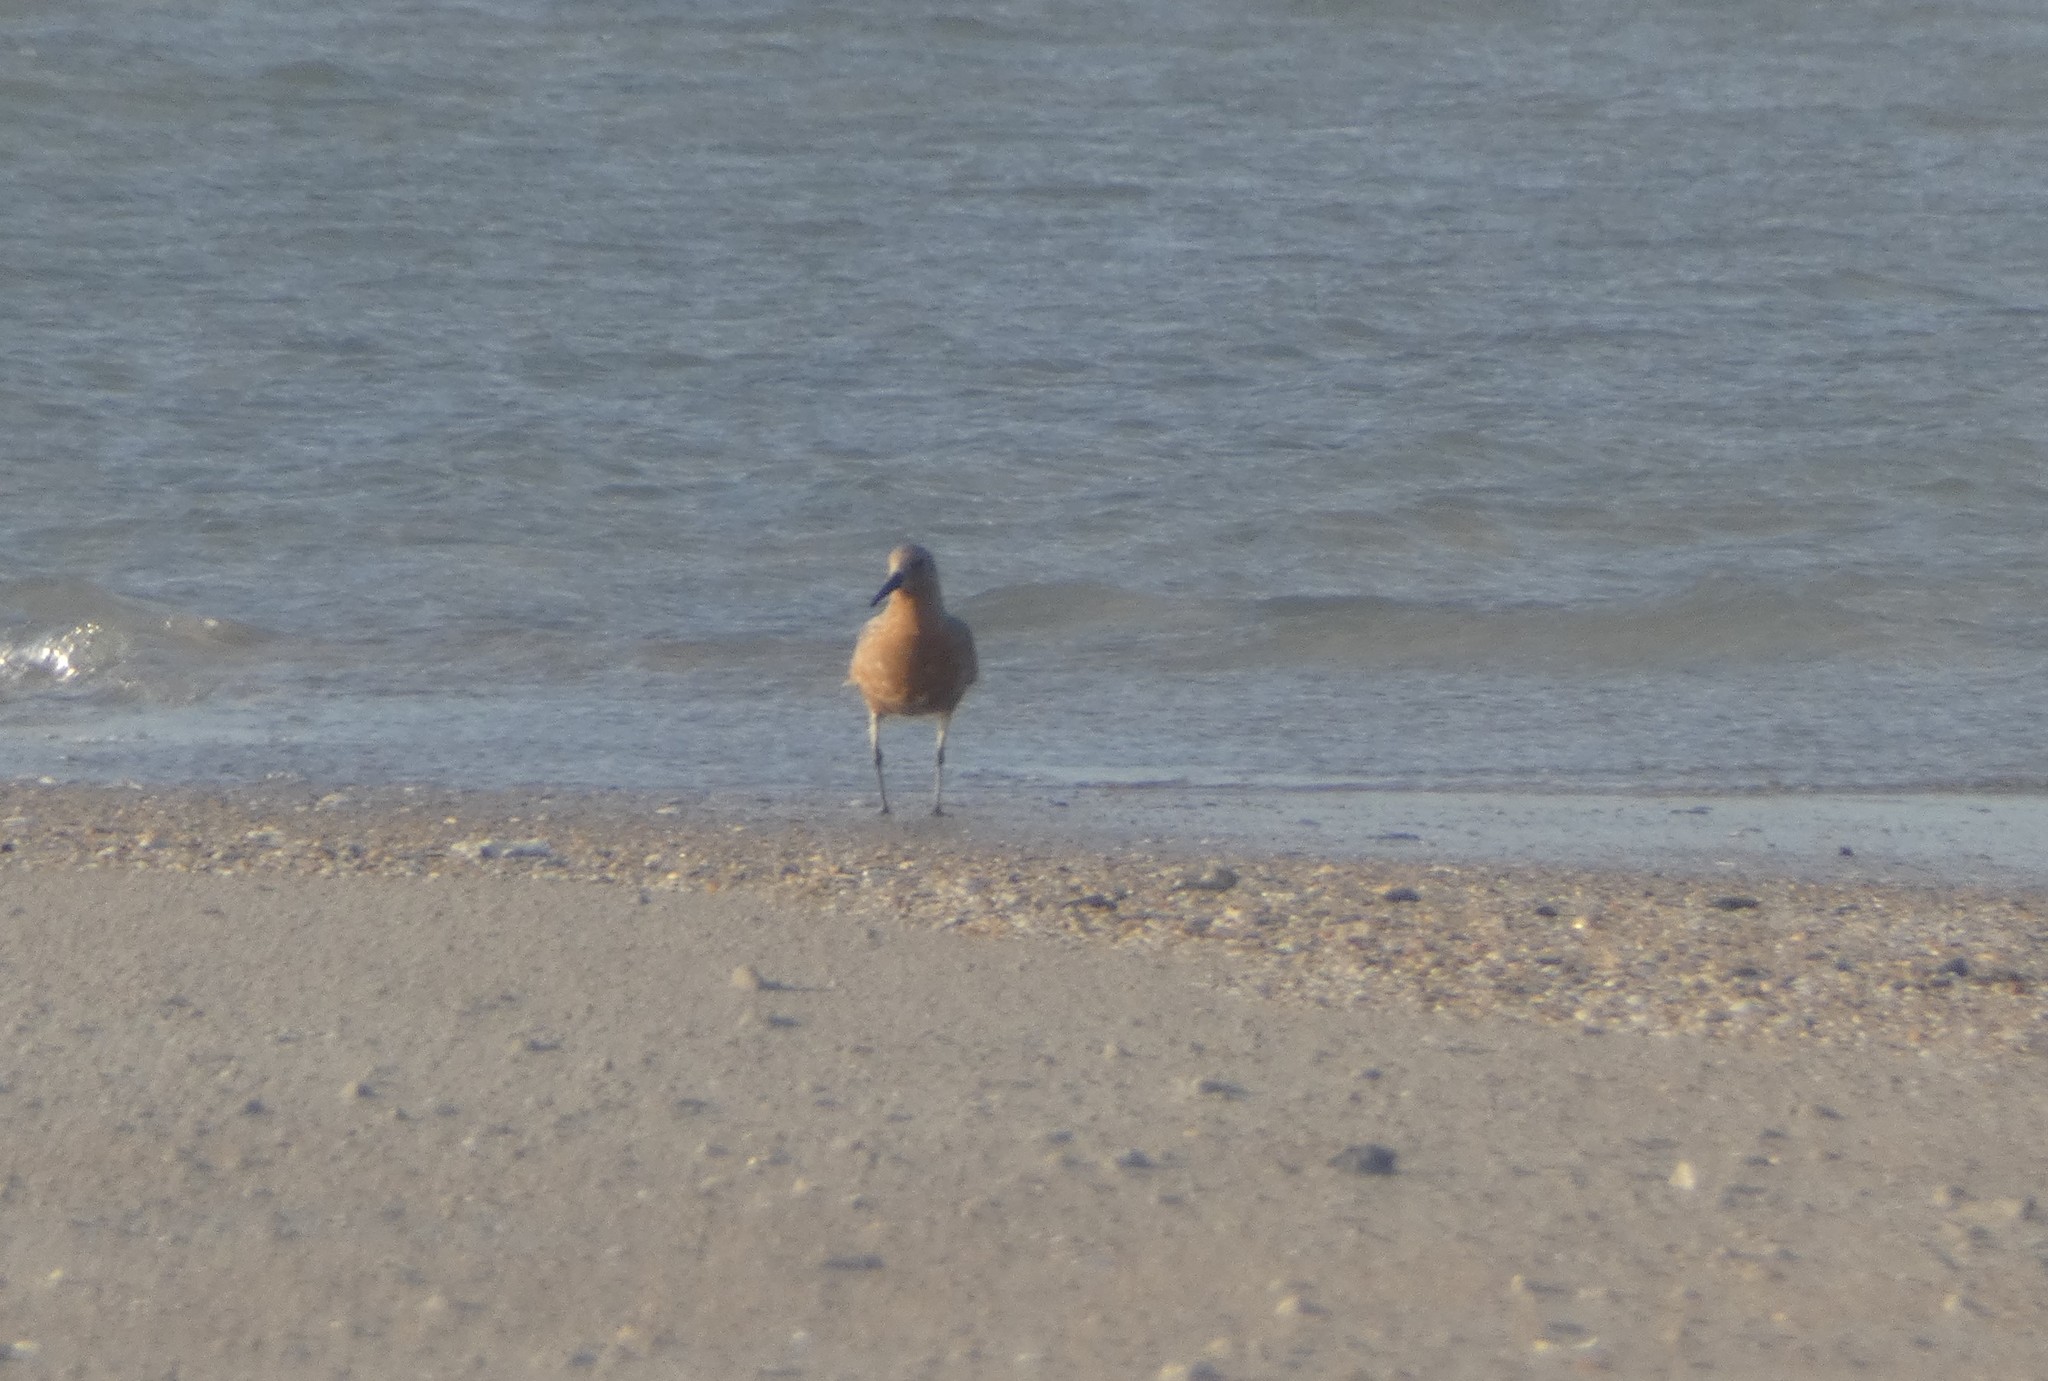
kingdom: Animalia
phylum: Chordata
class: Aves
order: Charadriiformes
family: Scolopacidae
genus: Calidris
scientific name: Calidris canutus
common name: Red knot
